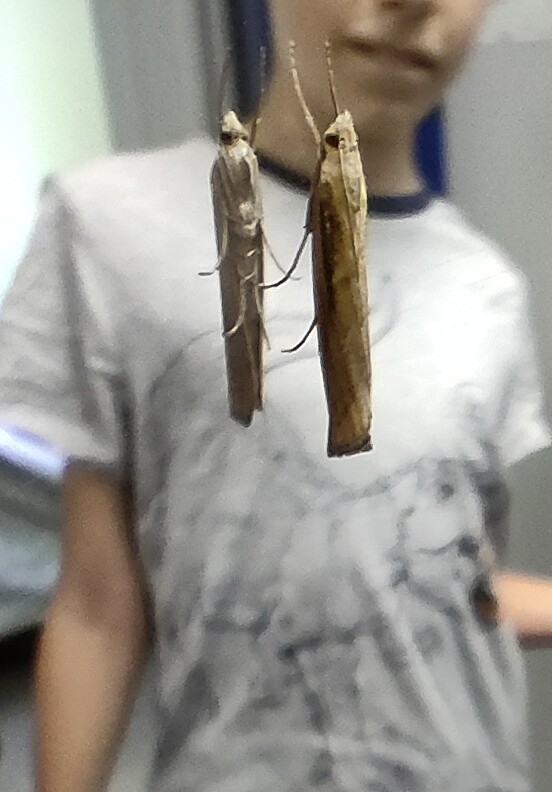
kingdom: Animalia
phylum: Arthropoda
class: Insecta
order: Lepidoptera
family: Crambidae
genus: Pediasia
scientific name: Pediasia contaminella
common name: Waste grass-veneer
